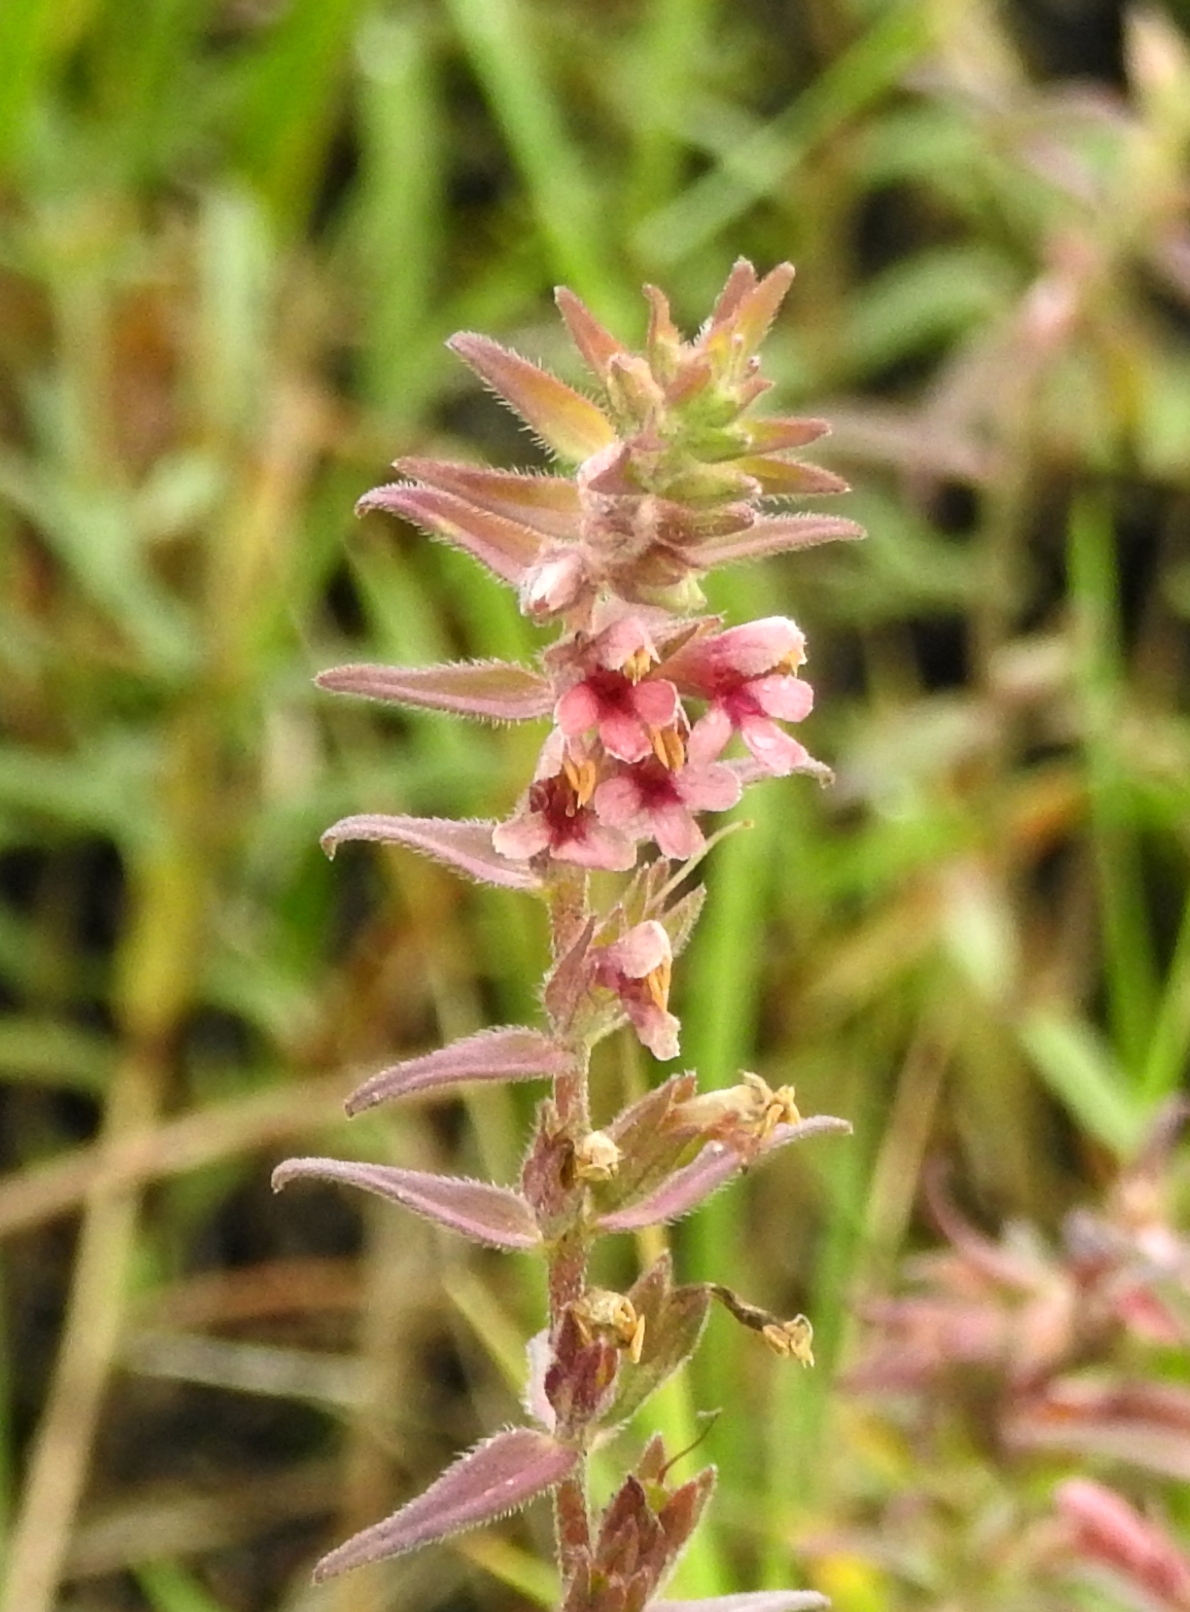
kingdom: Plantae
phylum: Tracheophyta
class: Magnoliopsida
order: Lamiales
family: Orobanchaceae
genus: Odontites
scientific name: Odontites vulgaris
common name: Broomrape
